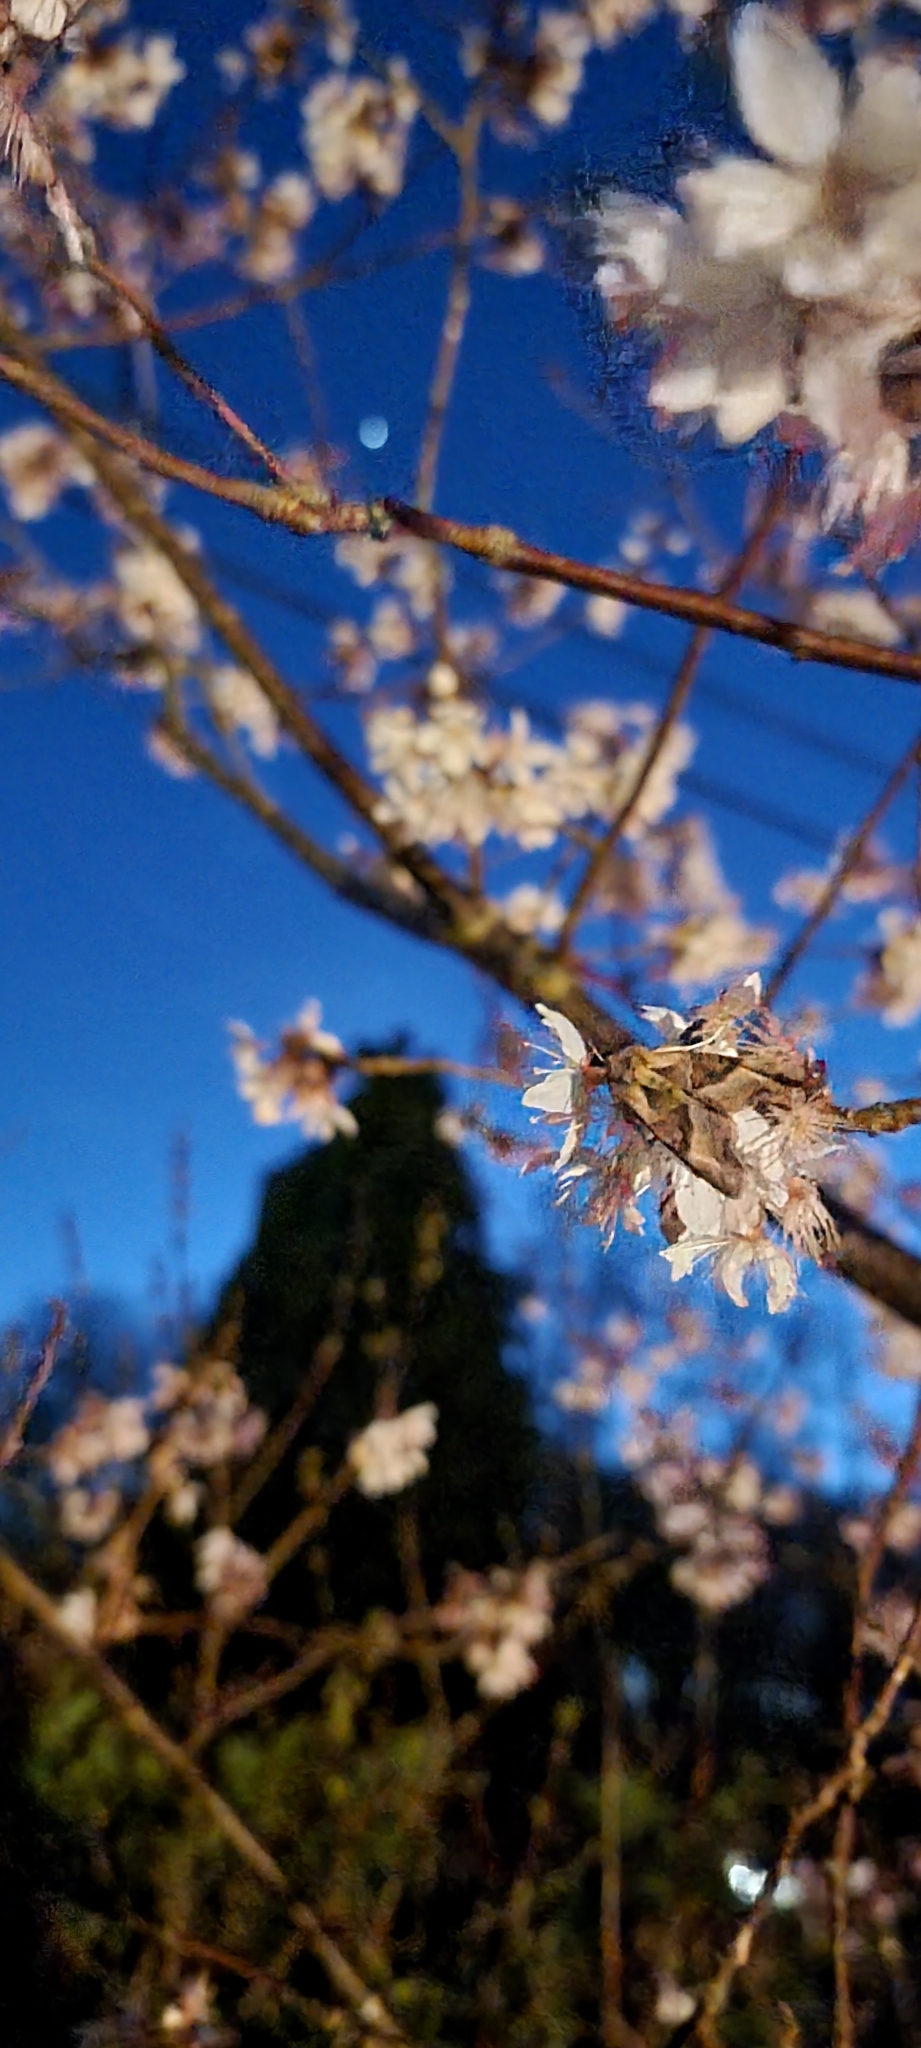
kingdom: Animalia
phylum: Arthropoda
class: Insecta
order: Lepidoptera
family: Noctuidae
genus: Phlogophora
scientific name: Phlogophora meticulosa
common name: Angle shades
